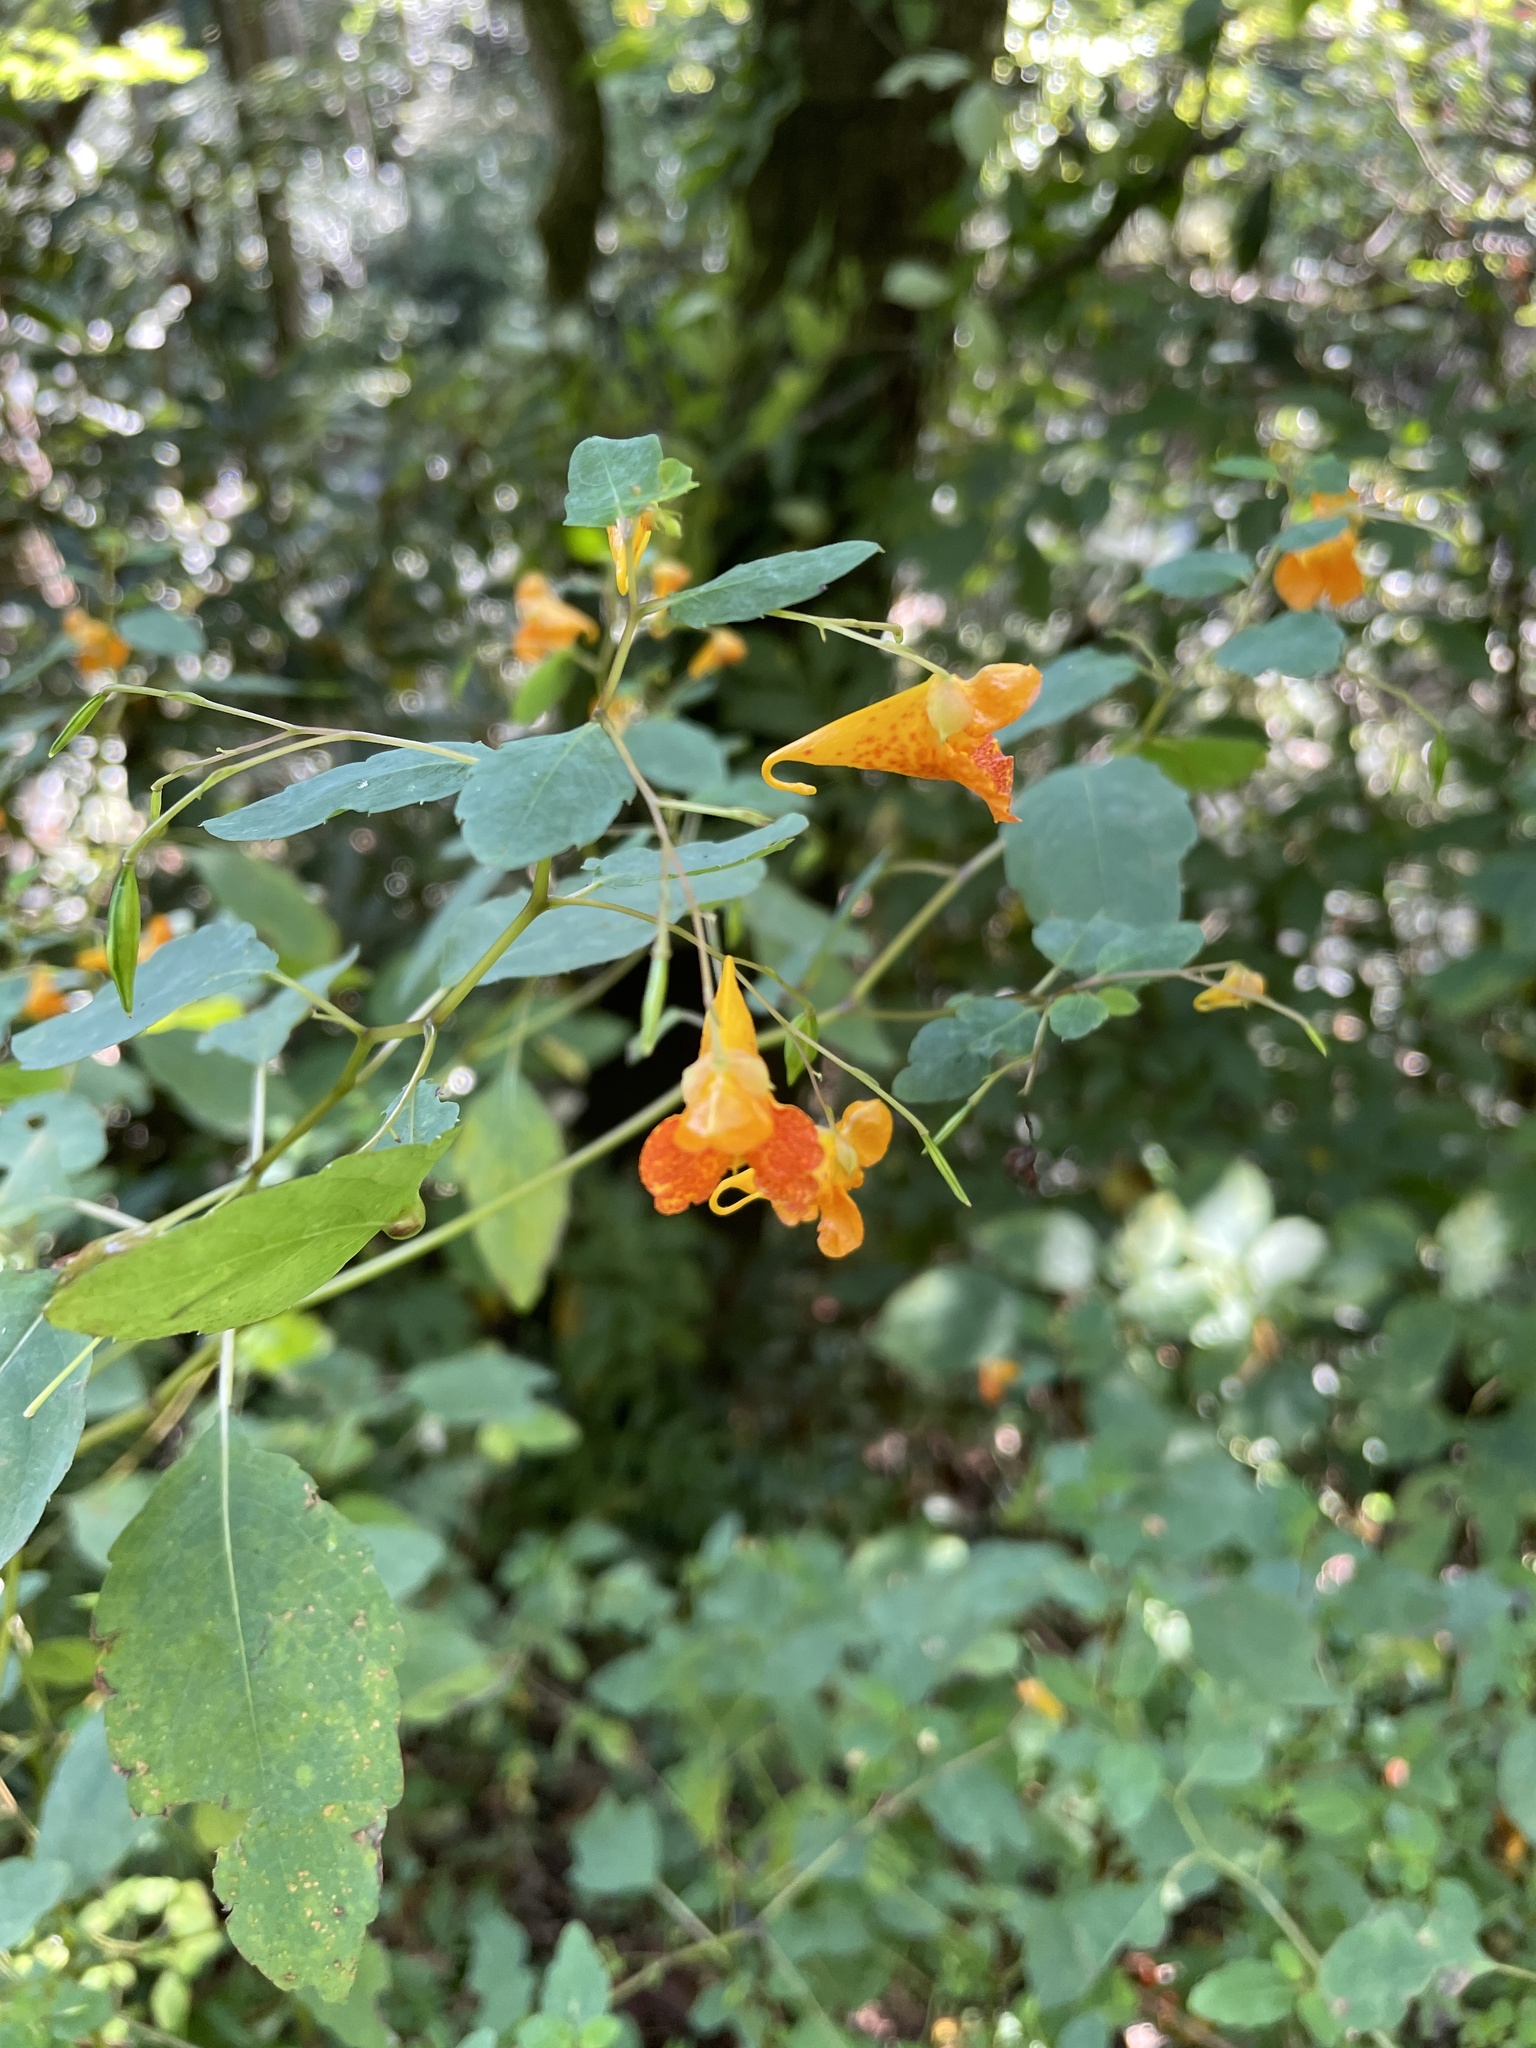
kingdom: Plantae
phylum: Tracheophyta
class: Magnoliopsida
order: Ericales
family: Balsaminaceae
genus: Impatiens
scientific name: Impatiens capensis
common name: Orange balsam
